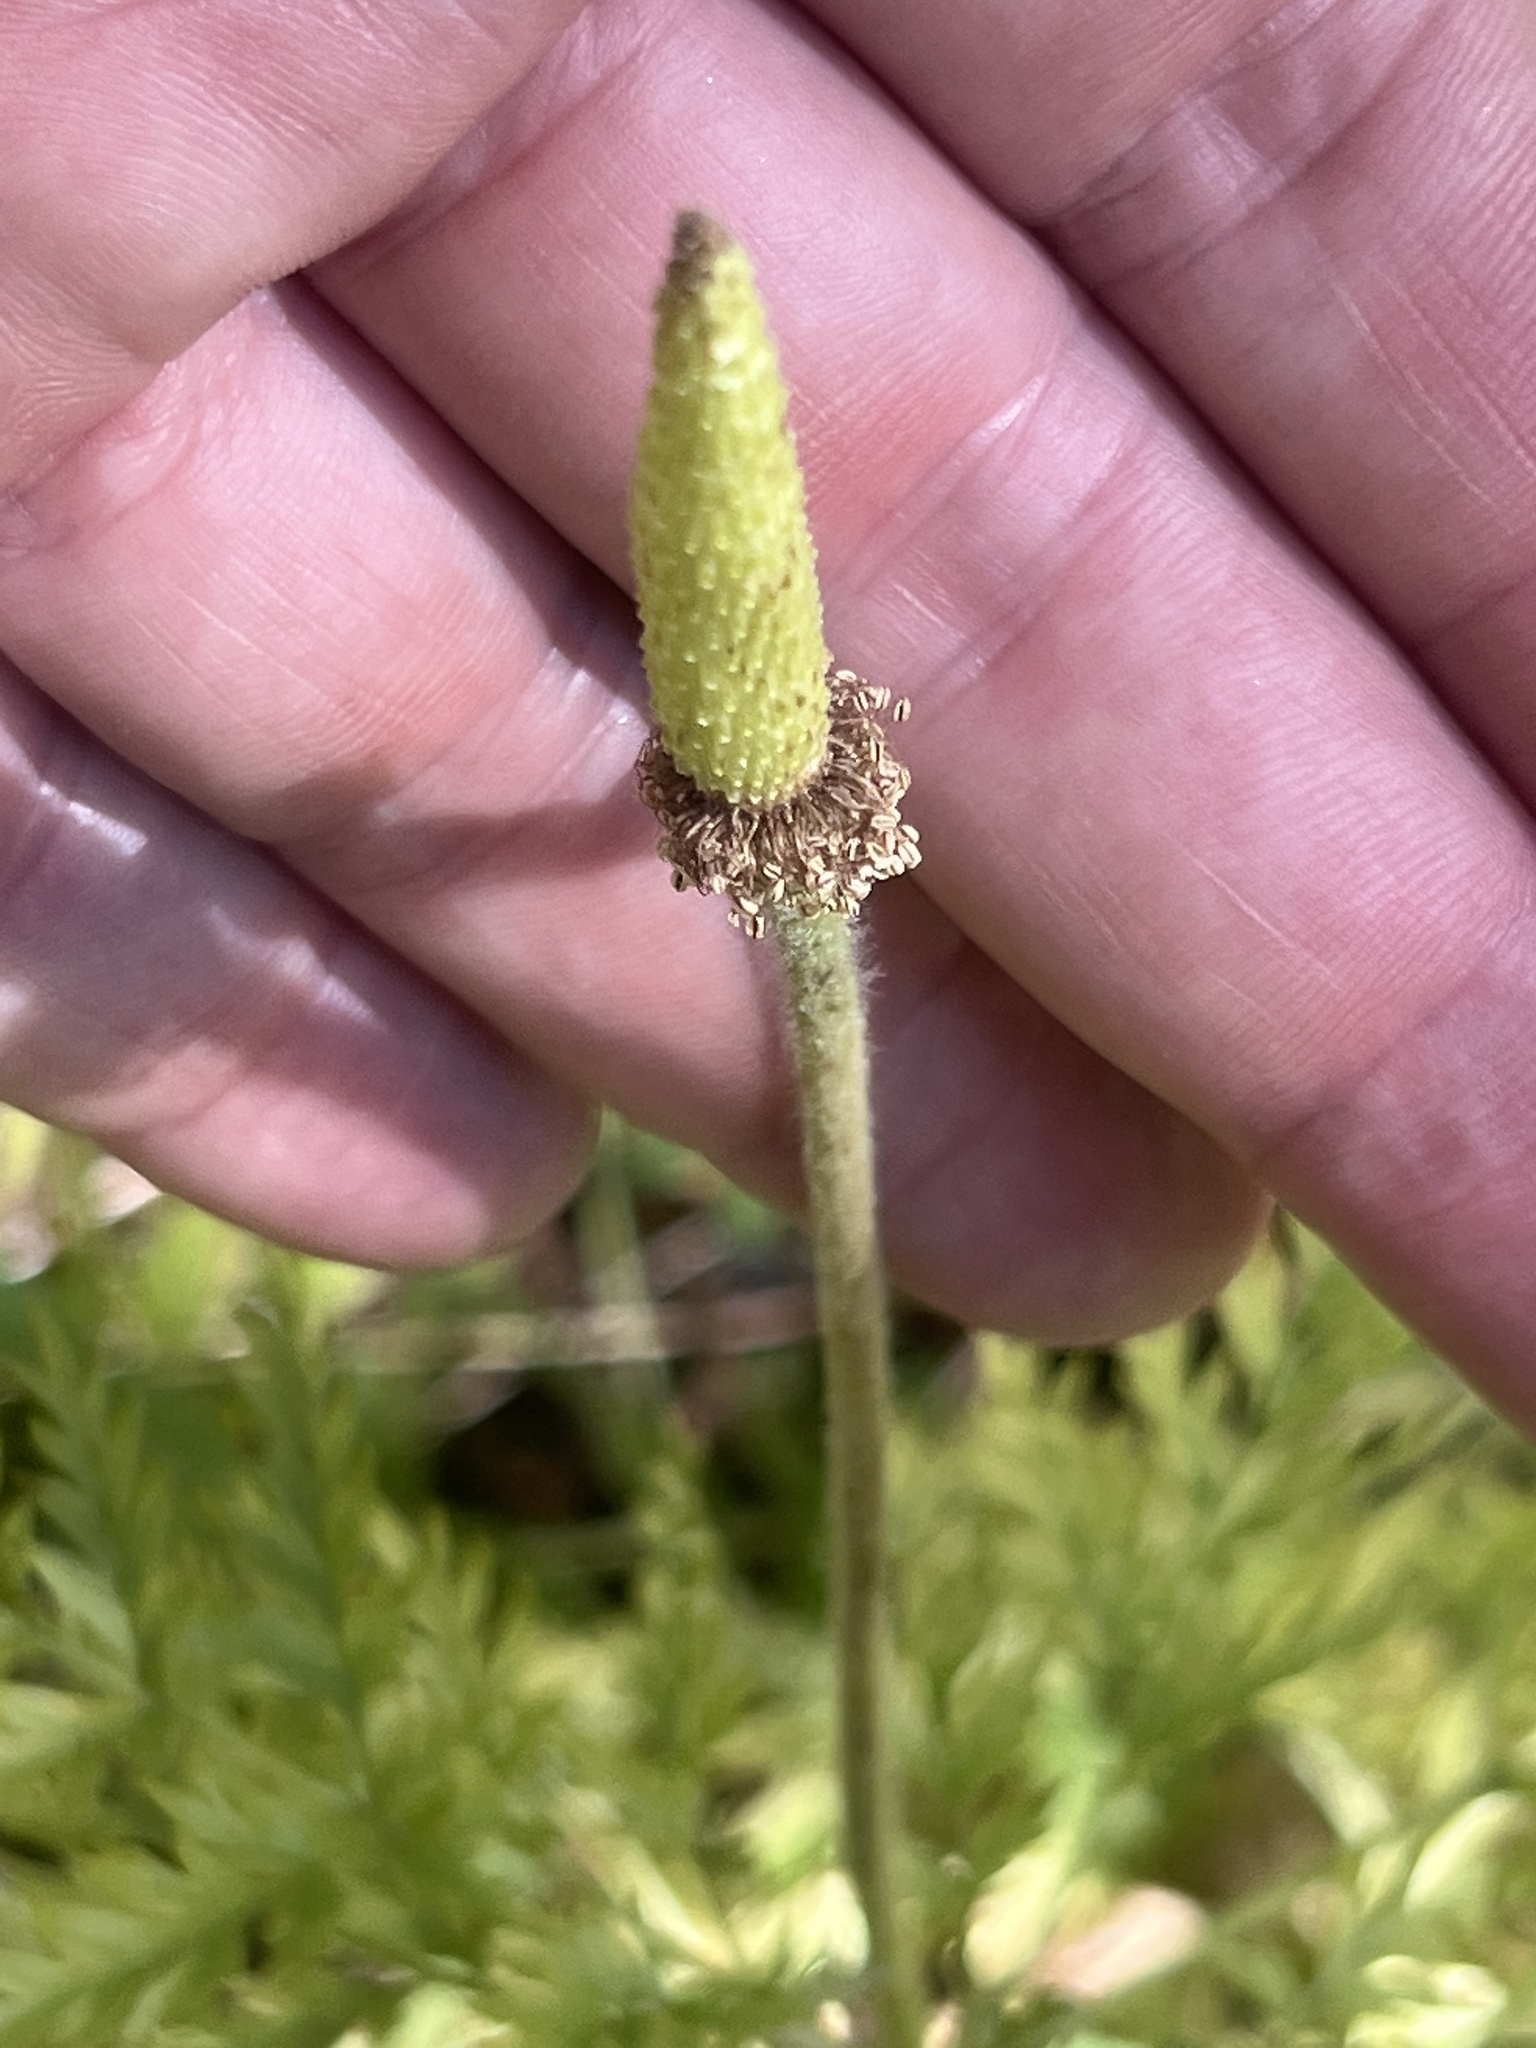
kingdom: Plantae
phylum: Tracheophyta
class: Magnoliopsida
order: Ranunculales
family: Ranunculaceae
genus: Pulsatilla
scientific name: Pulsatilla occidentalis
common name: Mountain pasqueflower
